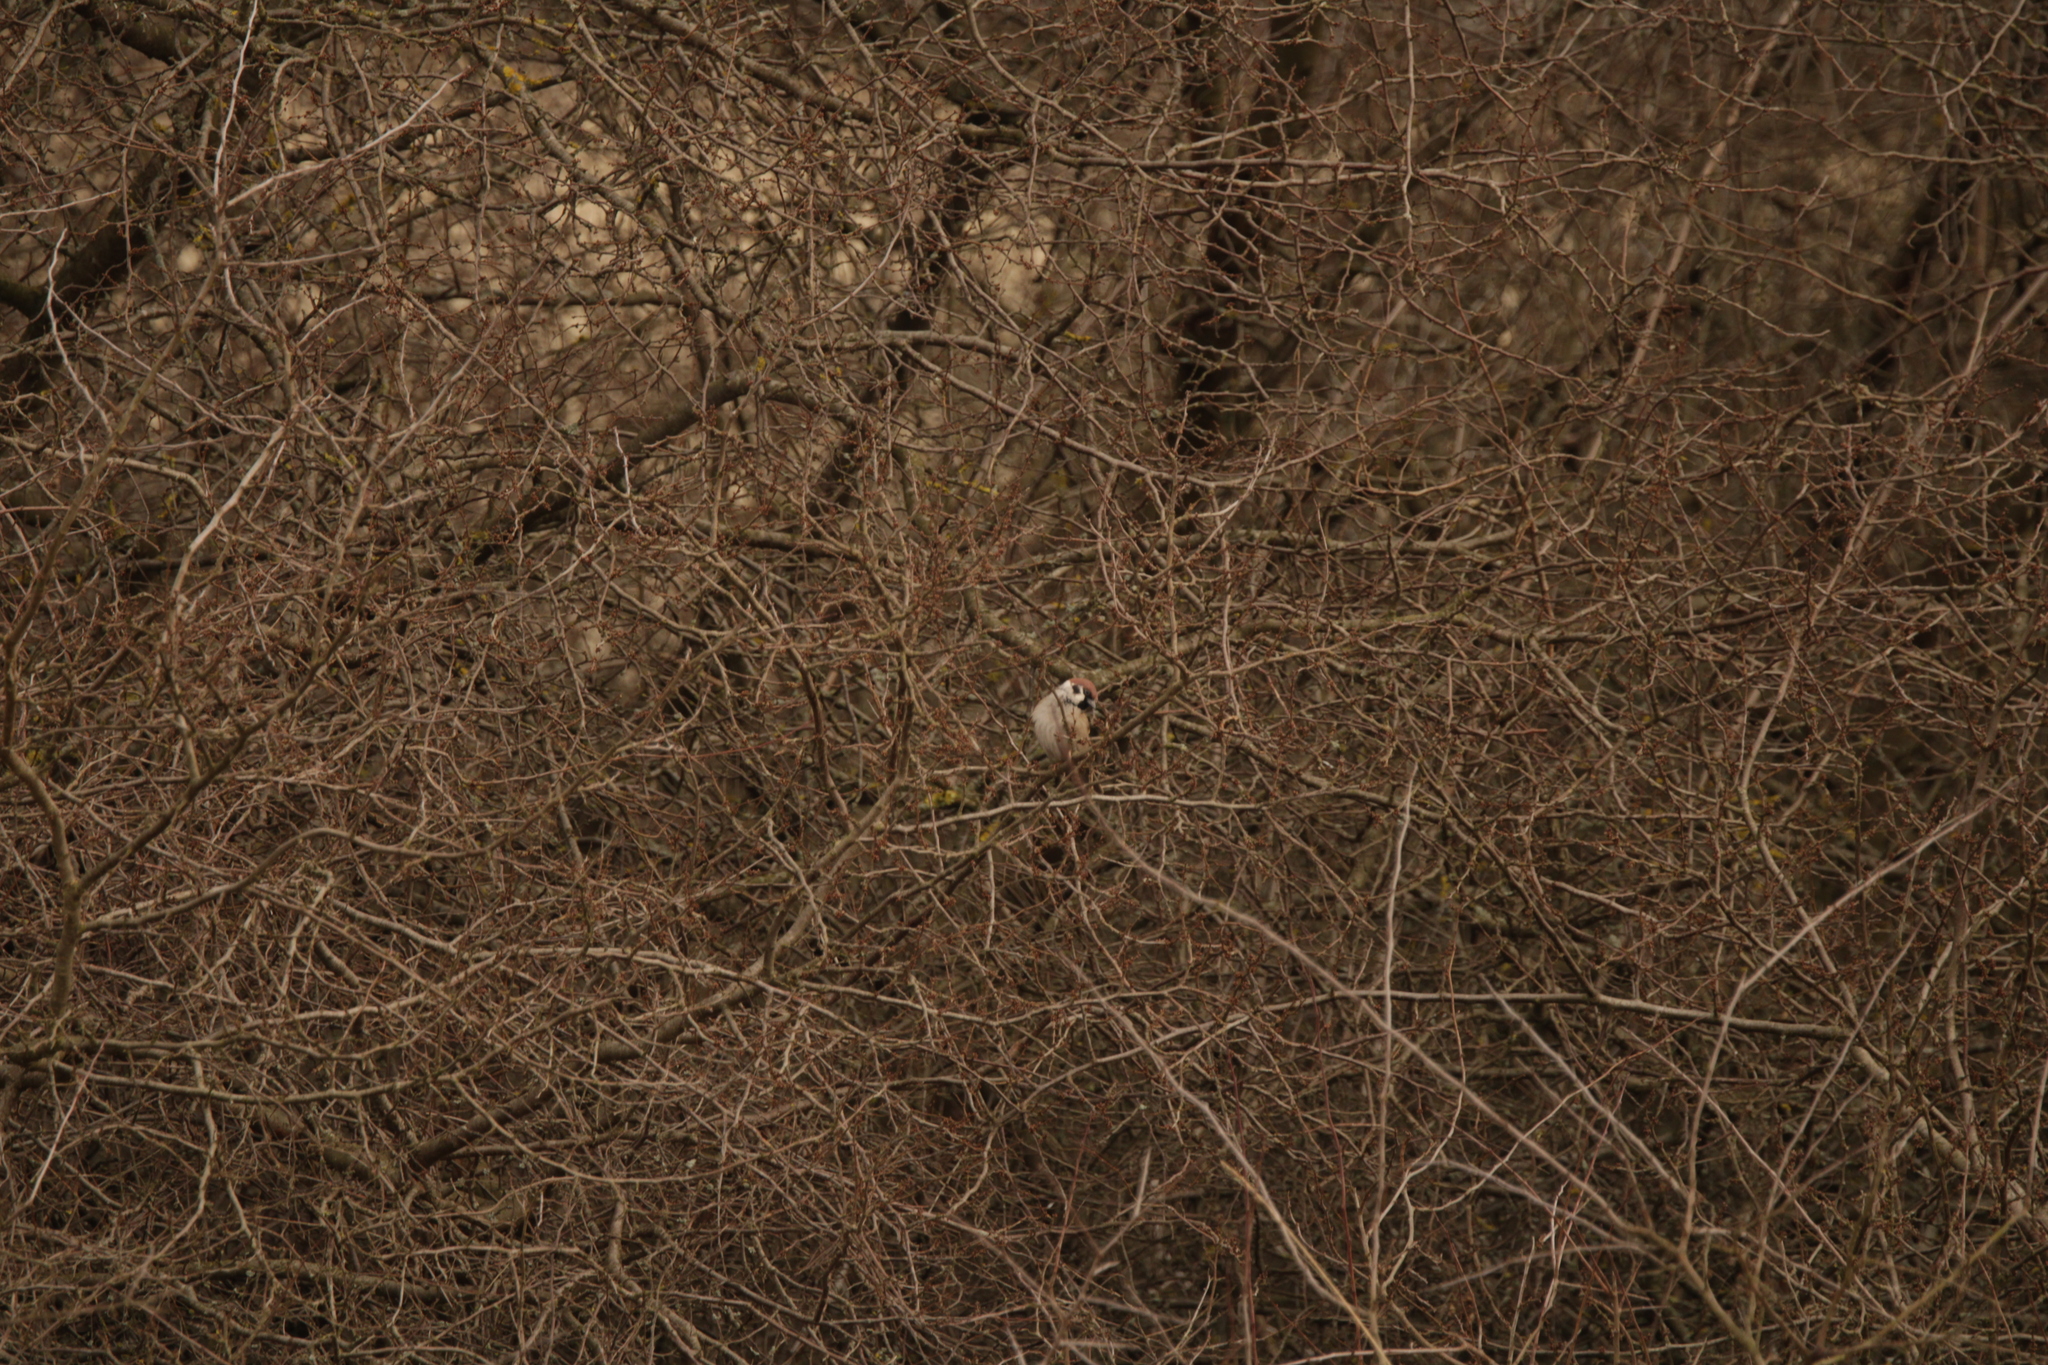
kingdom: Animalia
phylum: Chordata
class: Aves
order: Passeriformes
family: Passeridae
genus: Passer
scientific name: Passer montanus
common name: Eurasian tree sparrow
